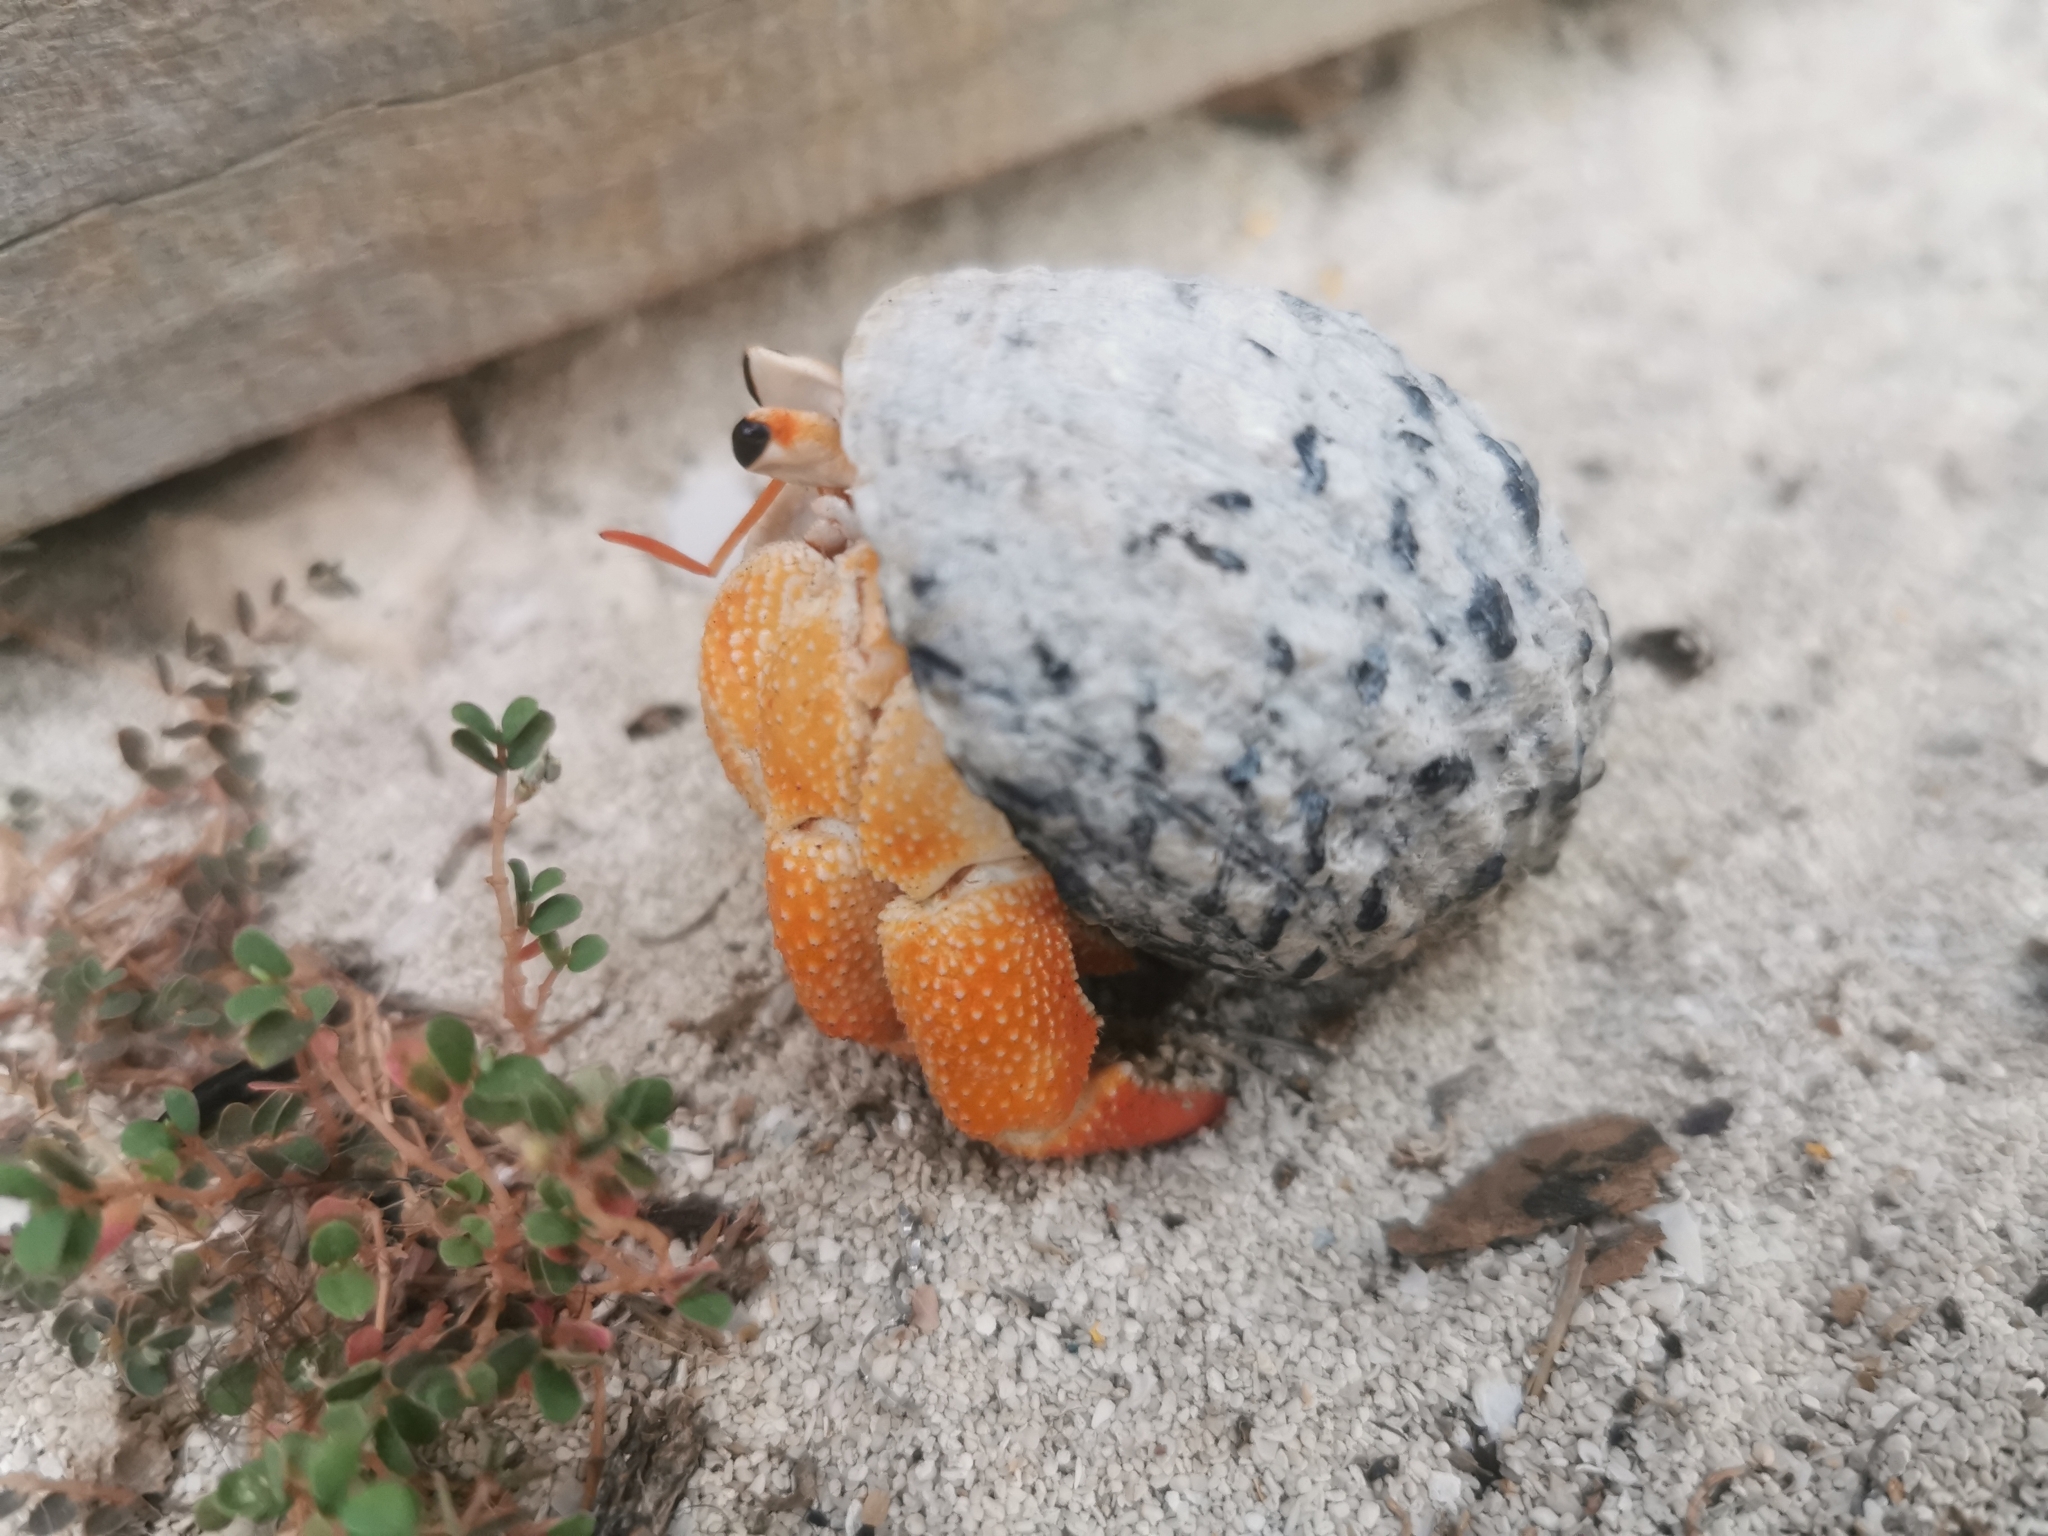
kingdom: Animalia
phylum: Arthropoda
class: Malacostraca
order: Decapoda
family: Coenobitidae
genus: Coenobita
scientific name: Coenobita perlatus
